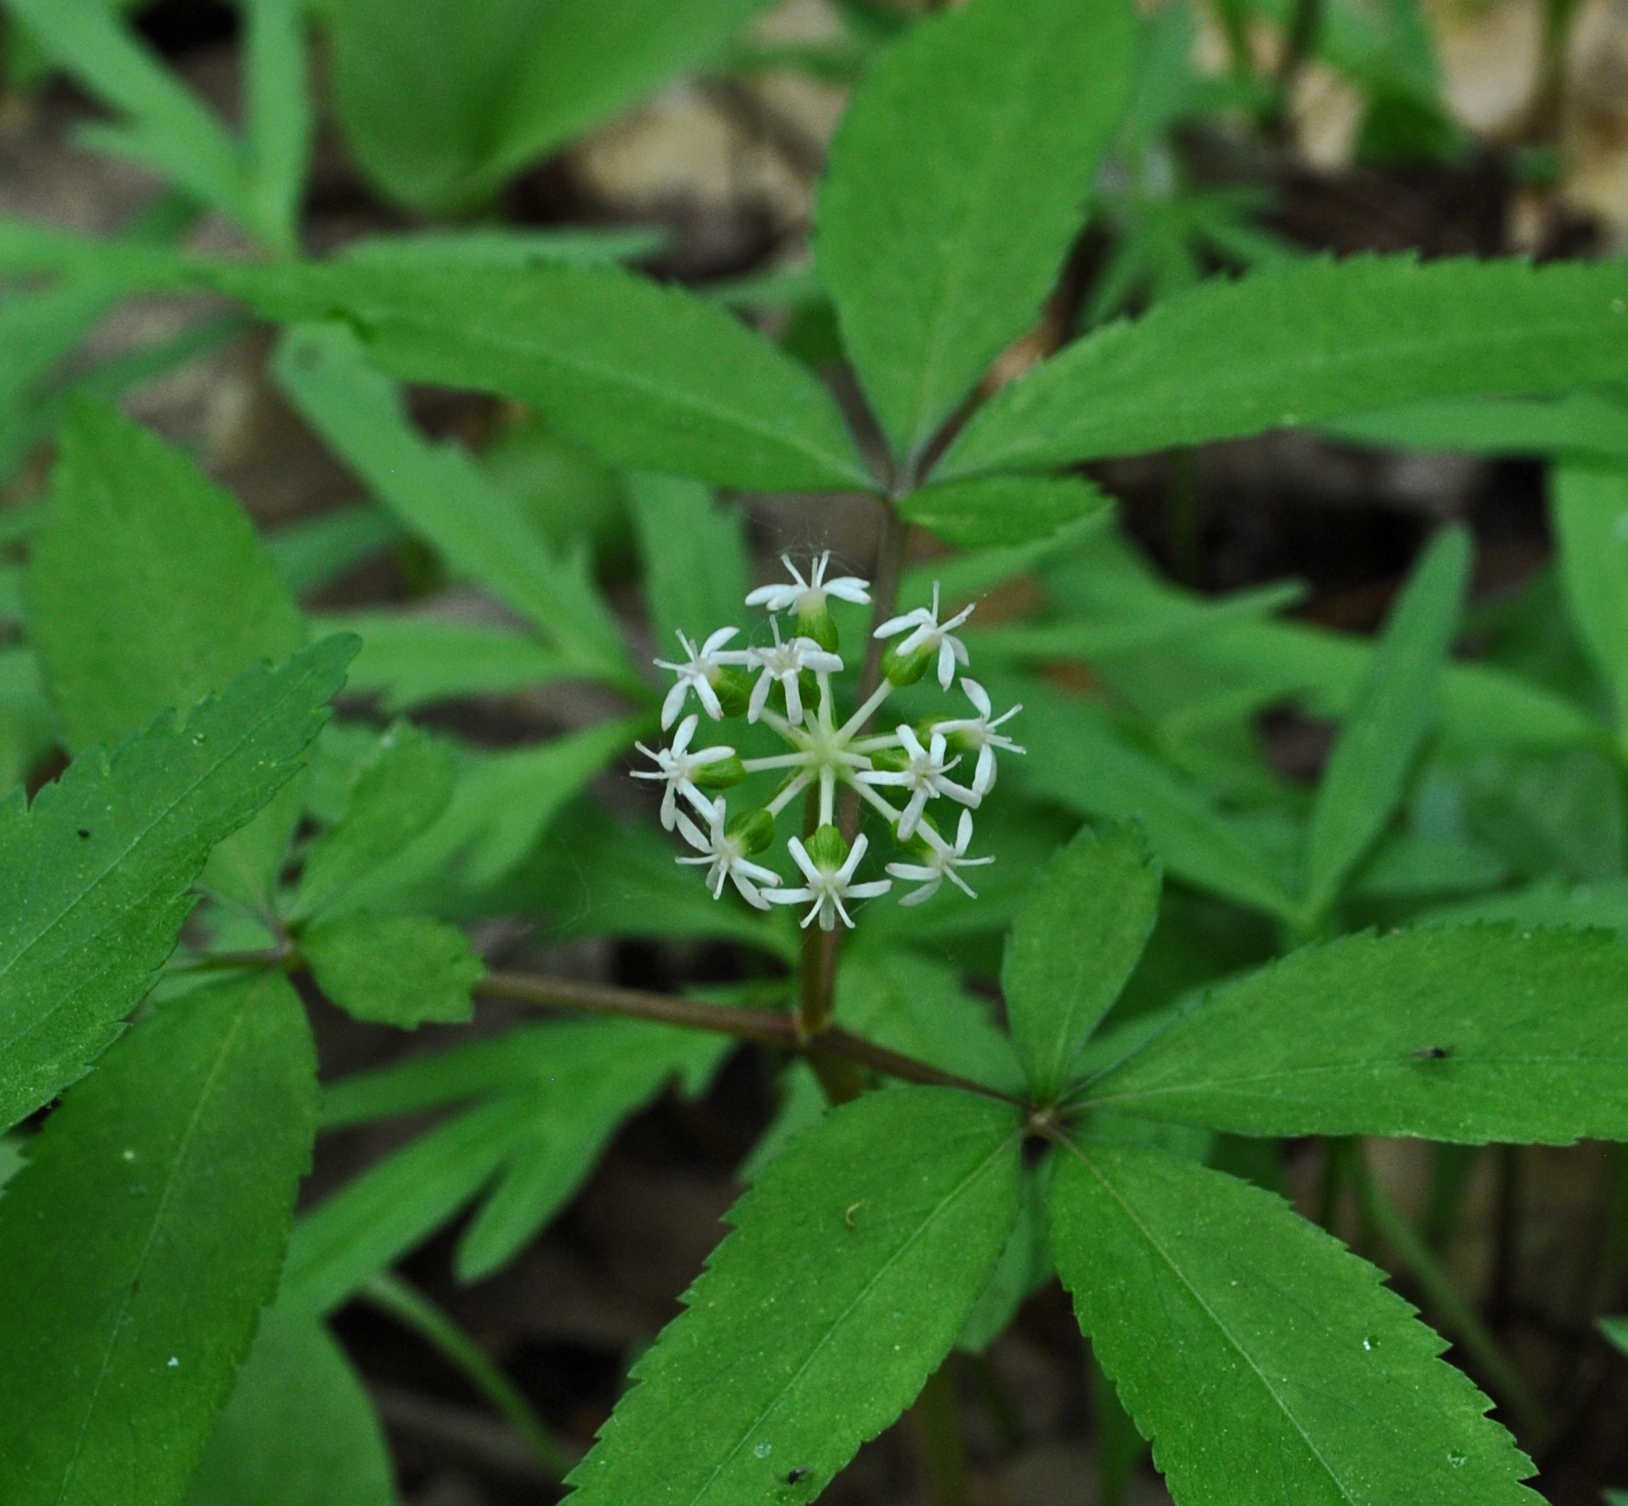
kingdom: Plantae
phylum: Tracheophyta
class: Magnoliopsida
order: Apiales
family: Araliaceae
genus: Panax
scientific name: Panax trifolius
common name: Dwarf ginseng
